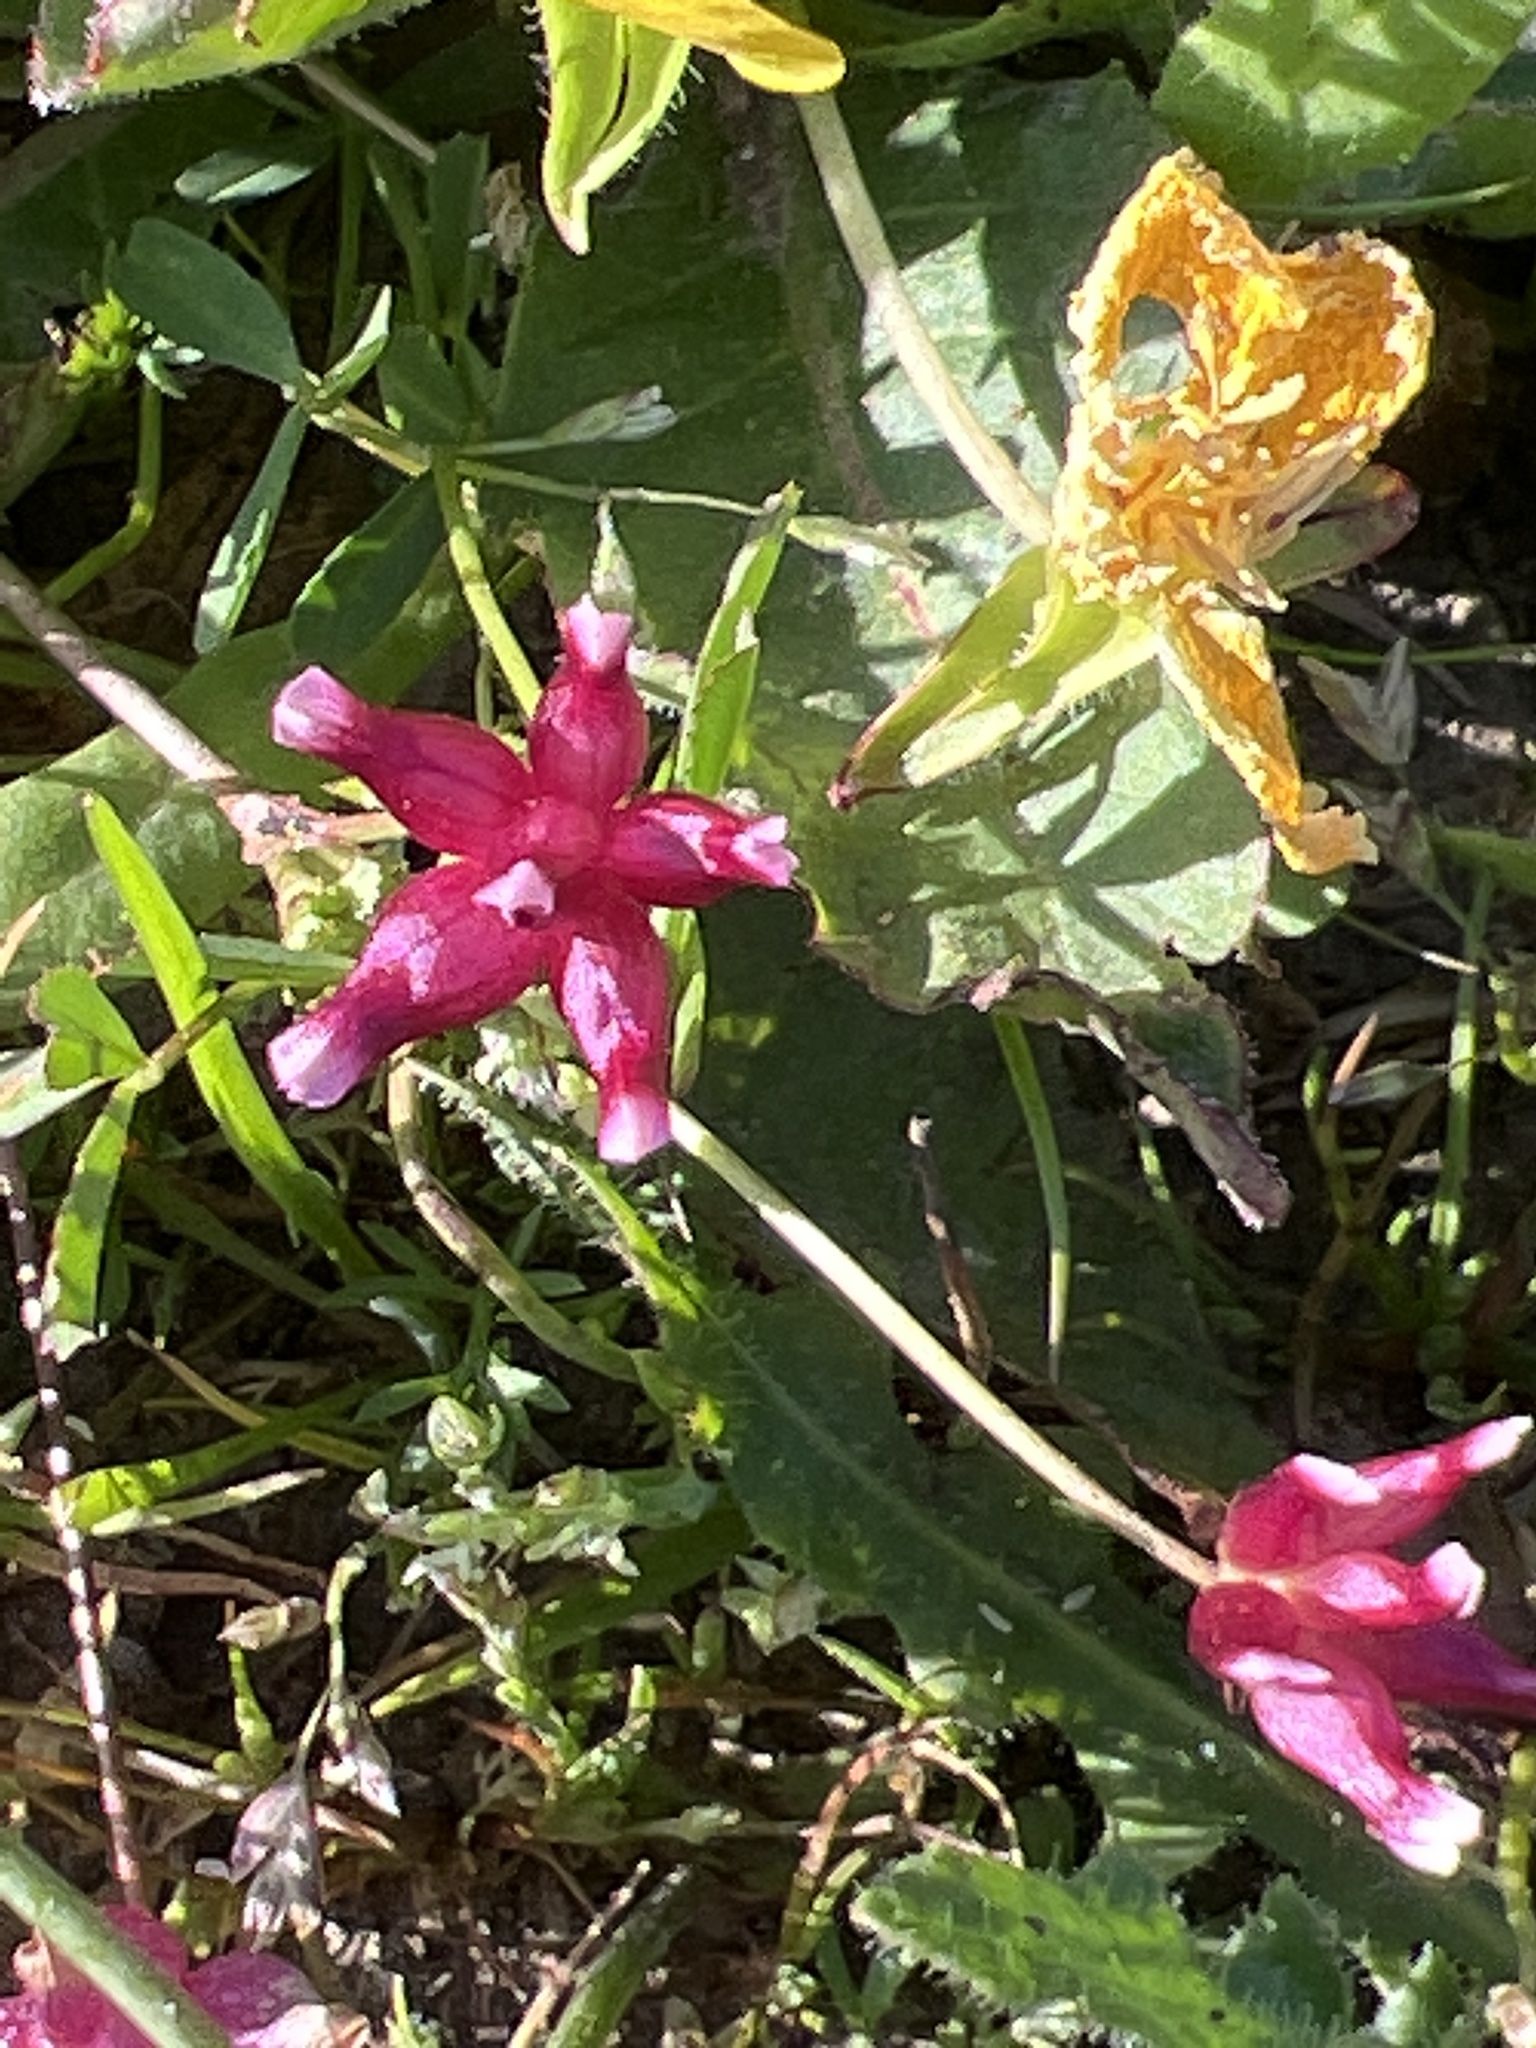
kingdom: Plantae
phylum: Tracheophyta
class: Magnoliopsida
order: Fabales
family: Fabaceae
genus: Trifolium
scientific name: Trifolium depauperatum
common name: Poverty clover
